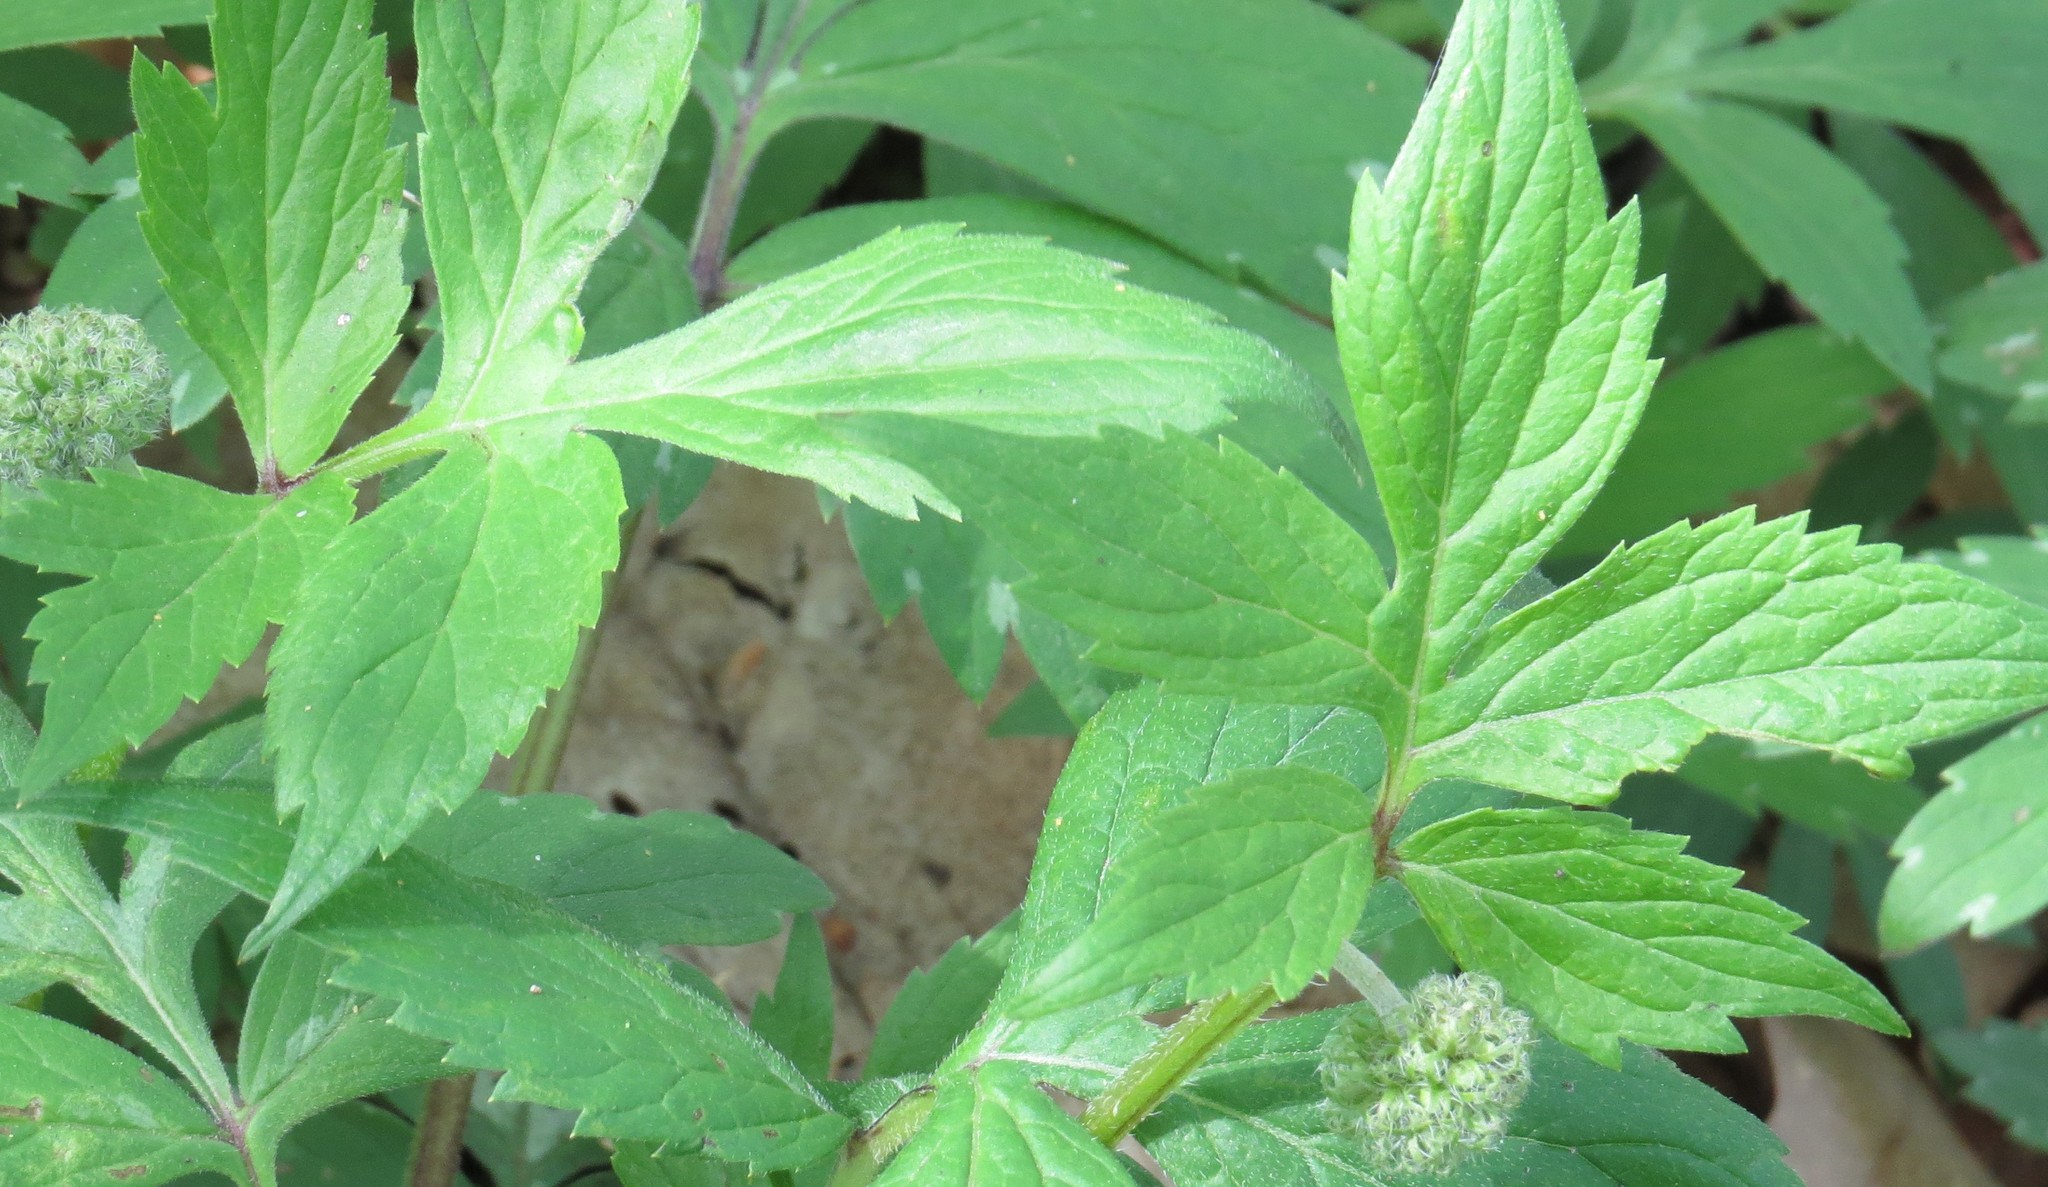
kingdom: Plantae
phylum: Tracheophyta
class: Magnoliopsida
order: Boraginales
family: Hydrophyllaceae
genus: Hydrophyllum
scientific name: Hydrophyllum virginianum
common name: Virginia waterleaf
